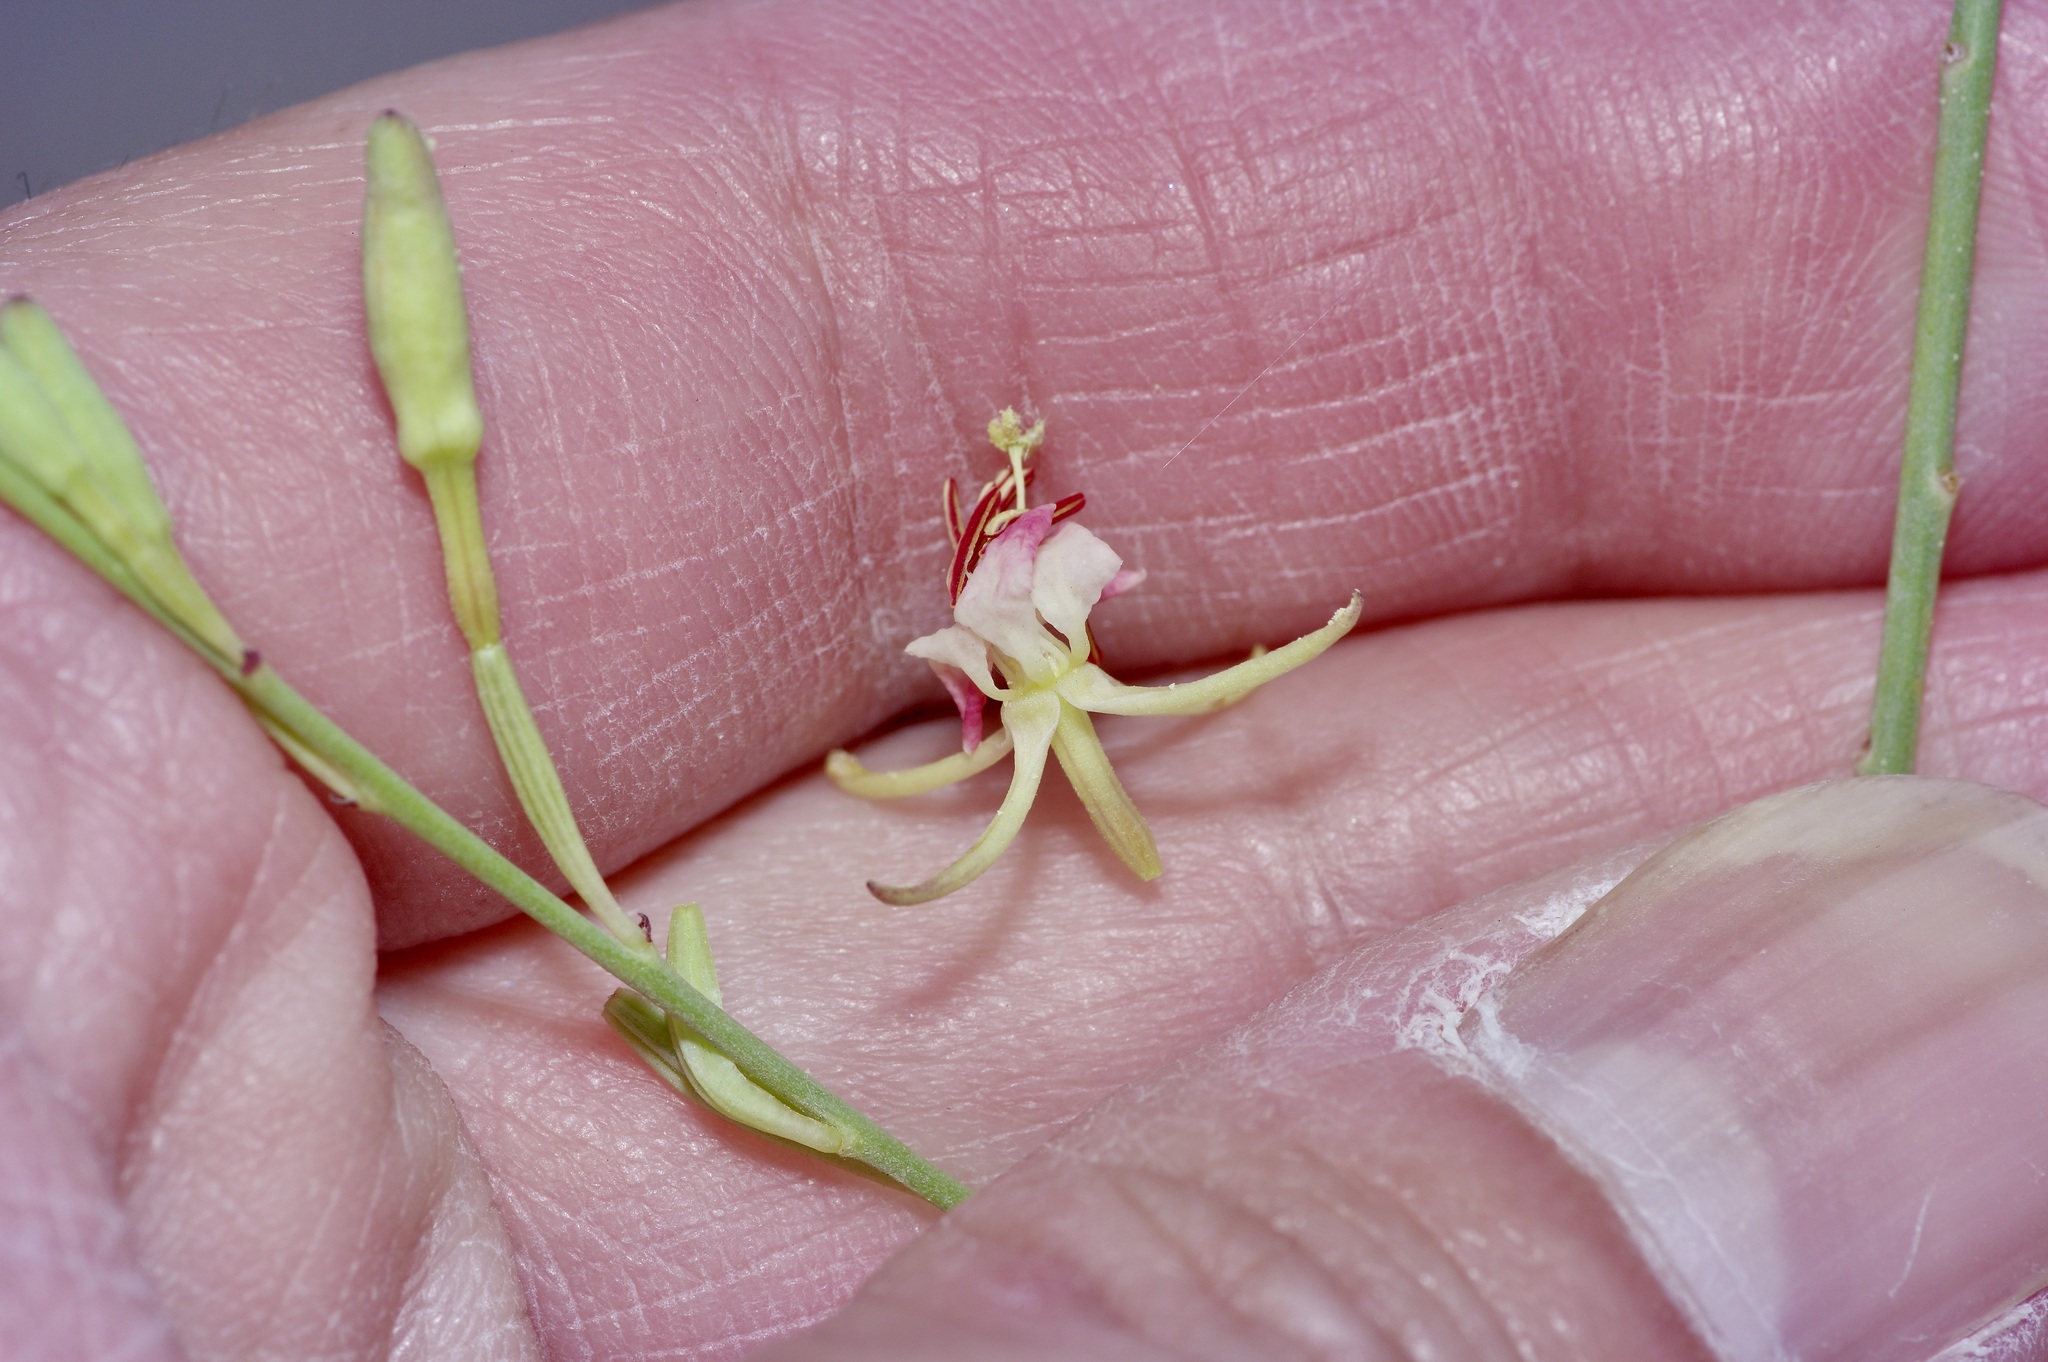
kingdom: Plantae
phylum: Tracheophyta
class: Magnoliopsida
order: Myrtales
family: Onagraceae
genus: Oenothera
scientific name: Oenothera calcicola
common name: Texas beeblossom
